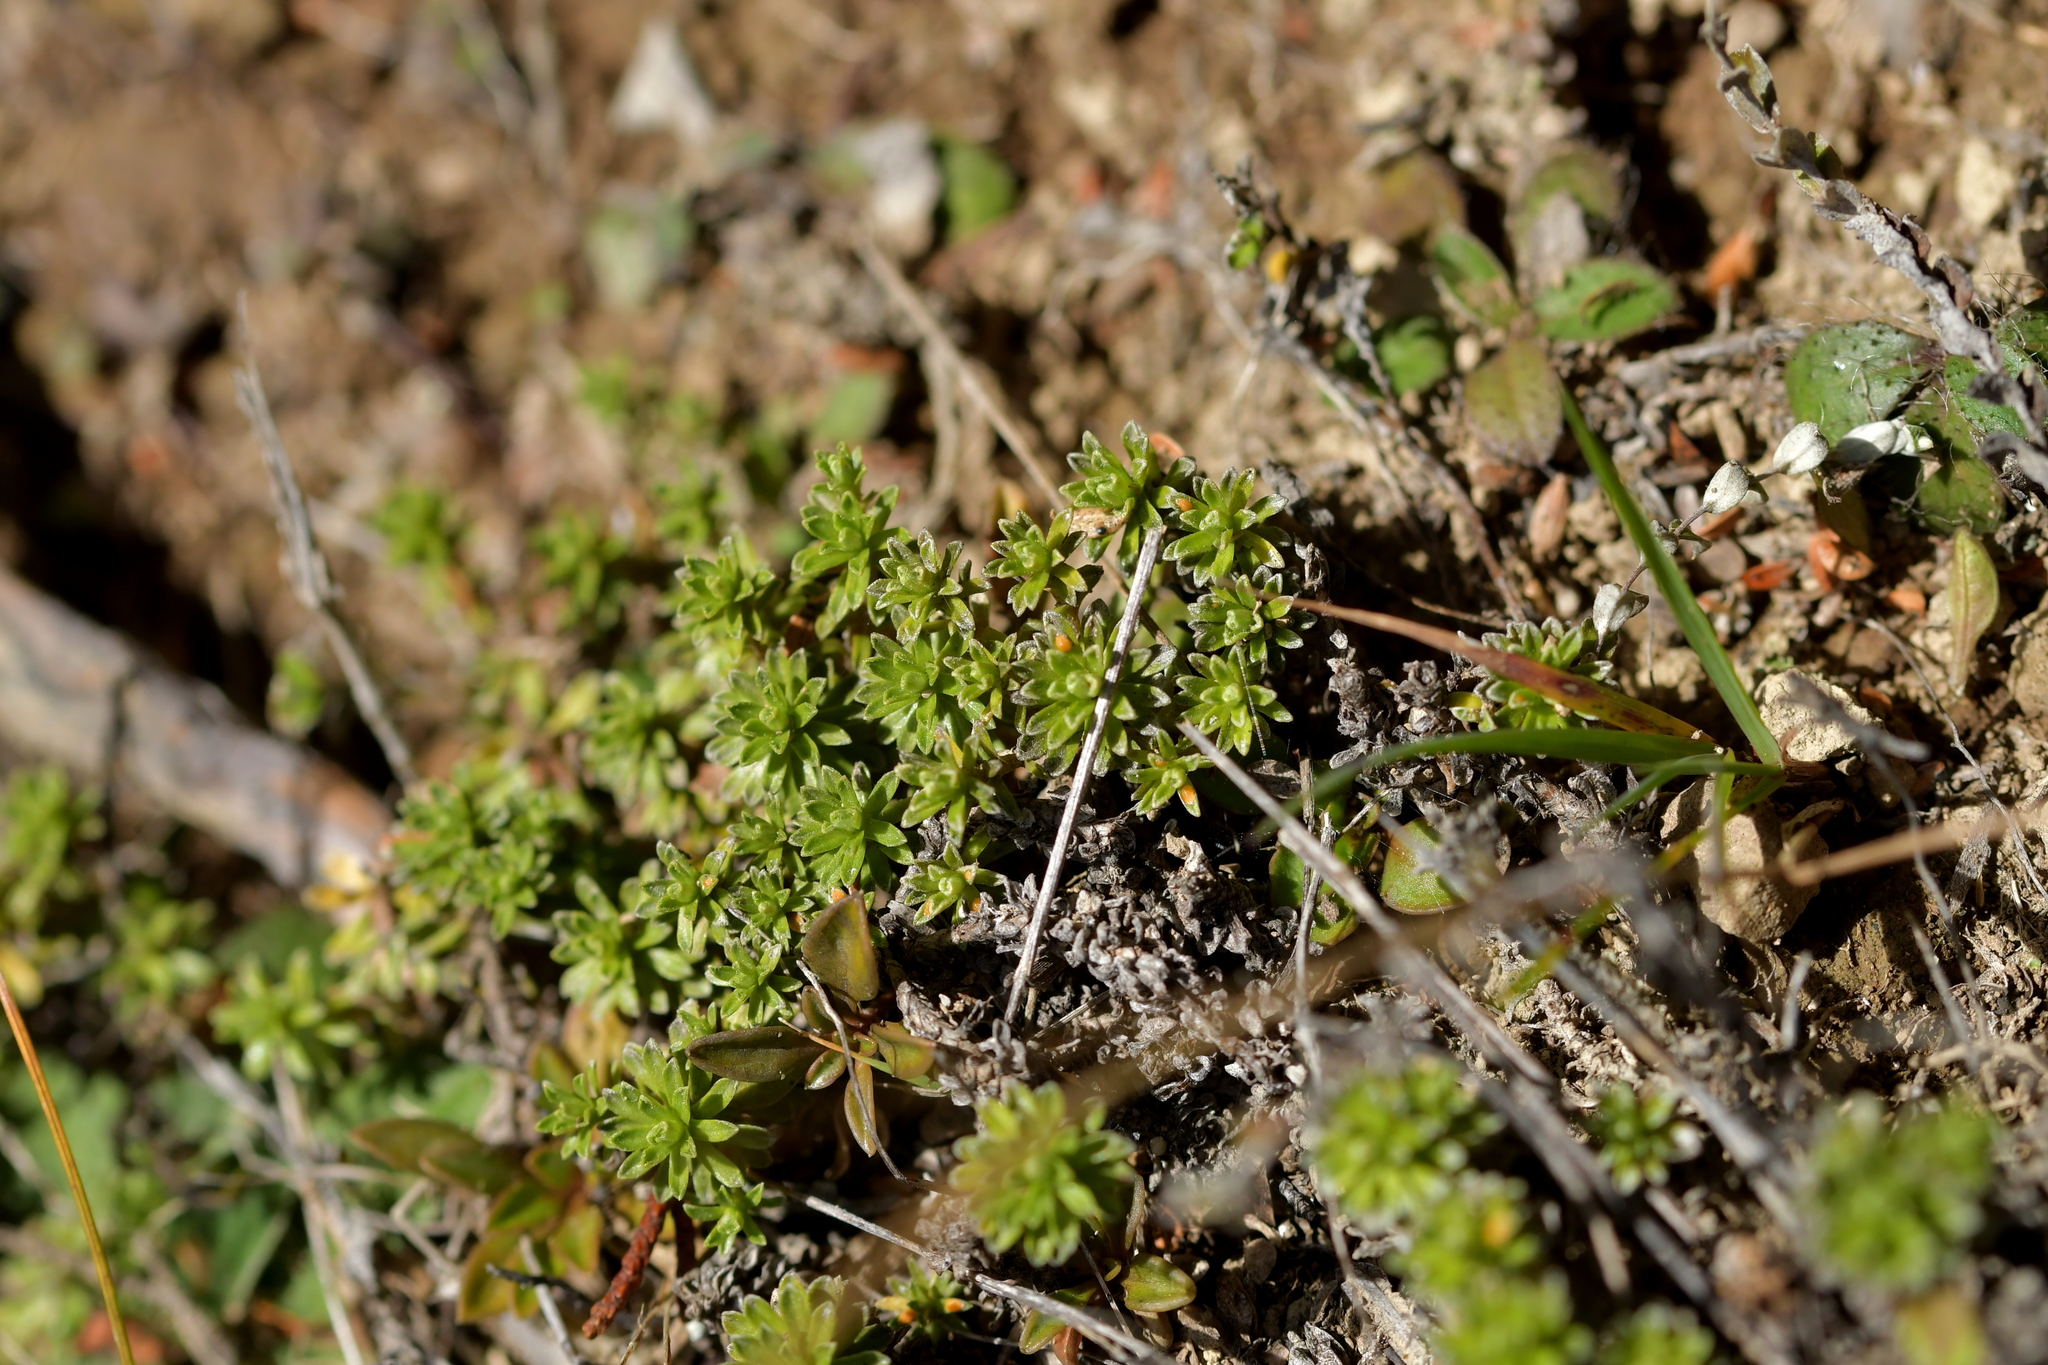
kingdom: Plantae
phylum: Tracheophyta
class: Magnoliopsida
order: Asterales
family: Asteraceae
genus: Raoulia
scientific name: Raoulia subsericea
